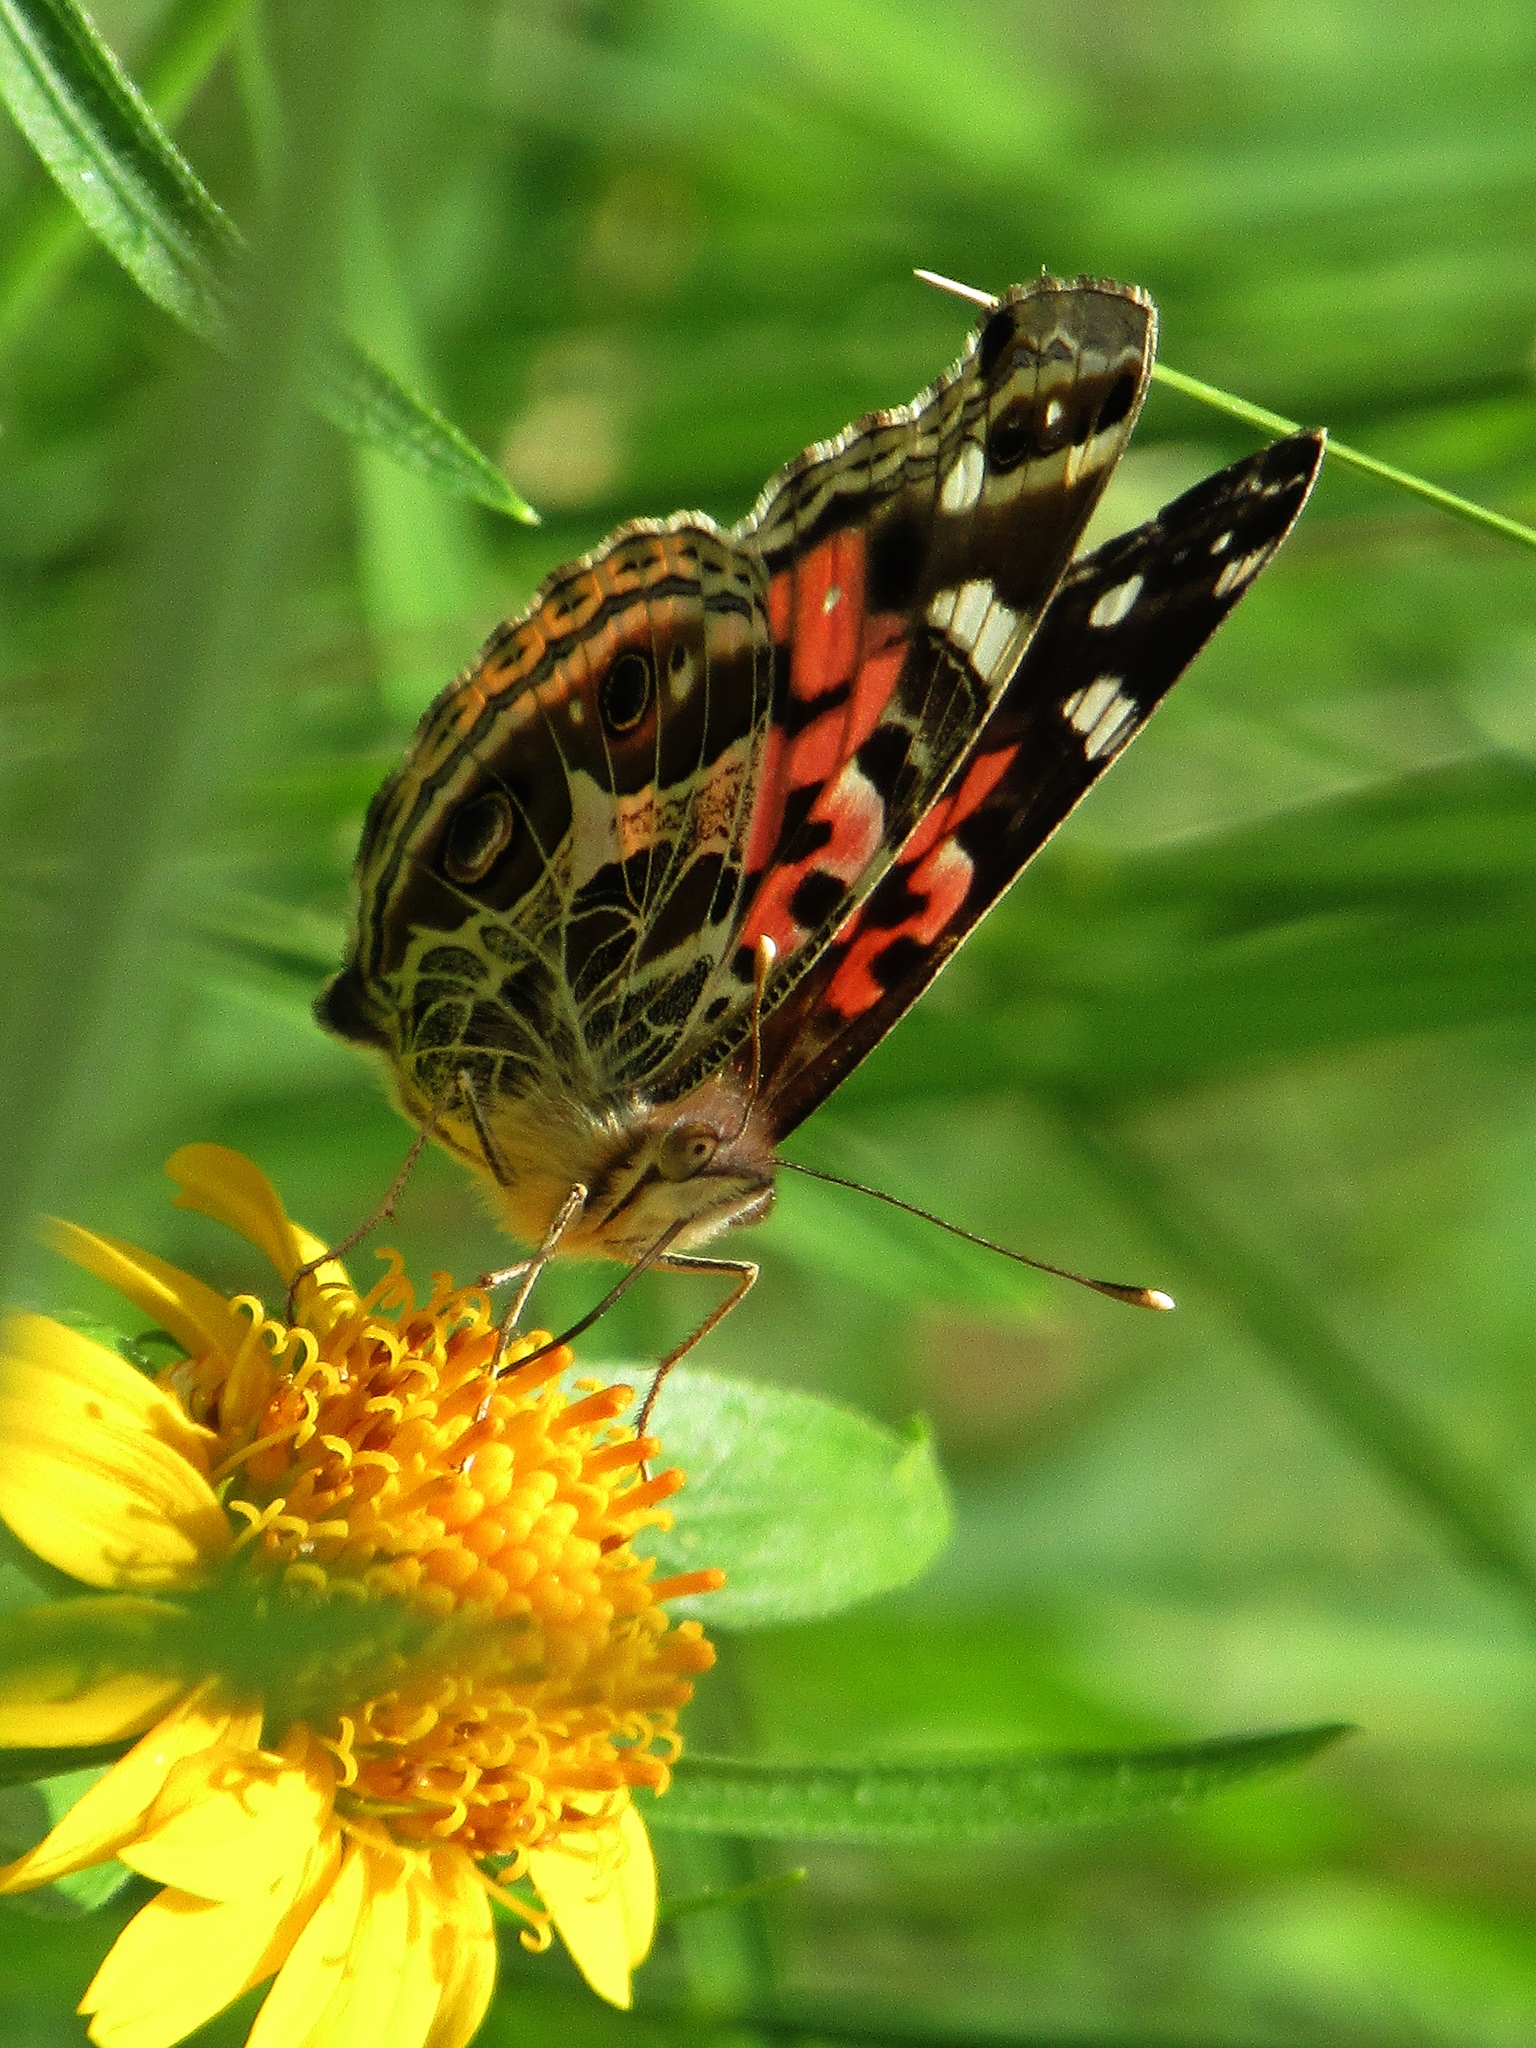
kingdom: Animalia
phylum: Arthropoda
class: Insecta
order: Lepidoptera
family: Nymphalidae
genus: Vanessa
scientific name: Vanessa braziliensis
